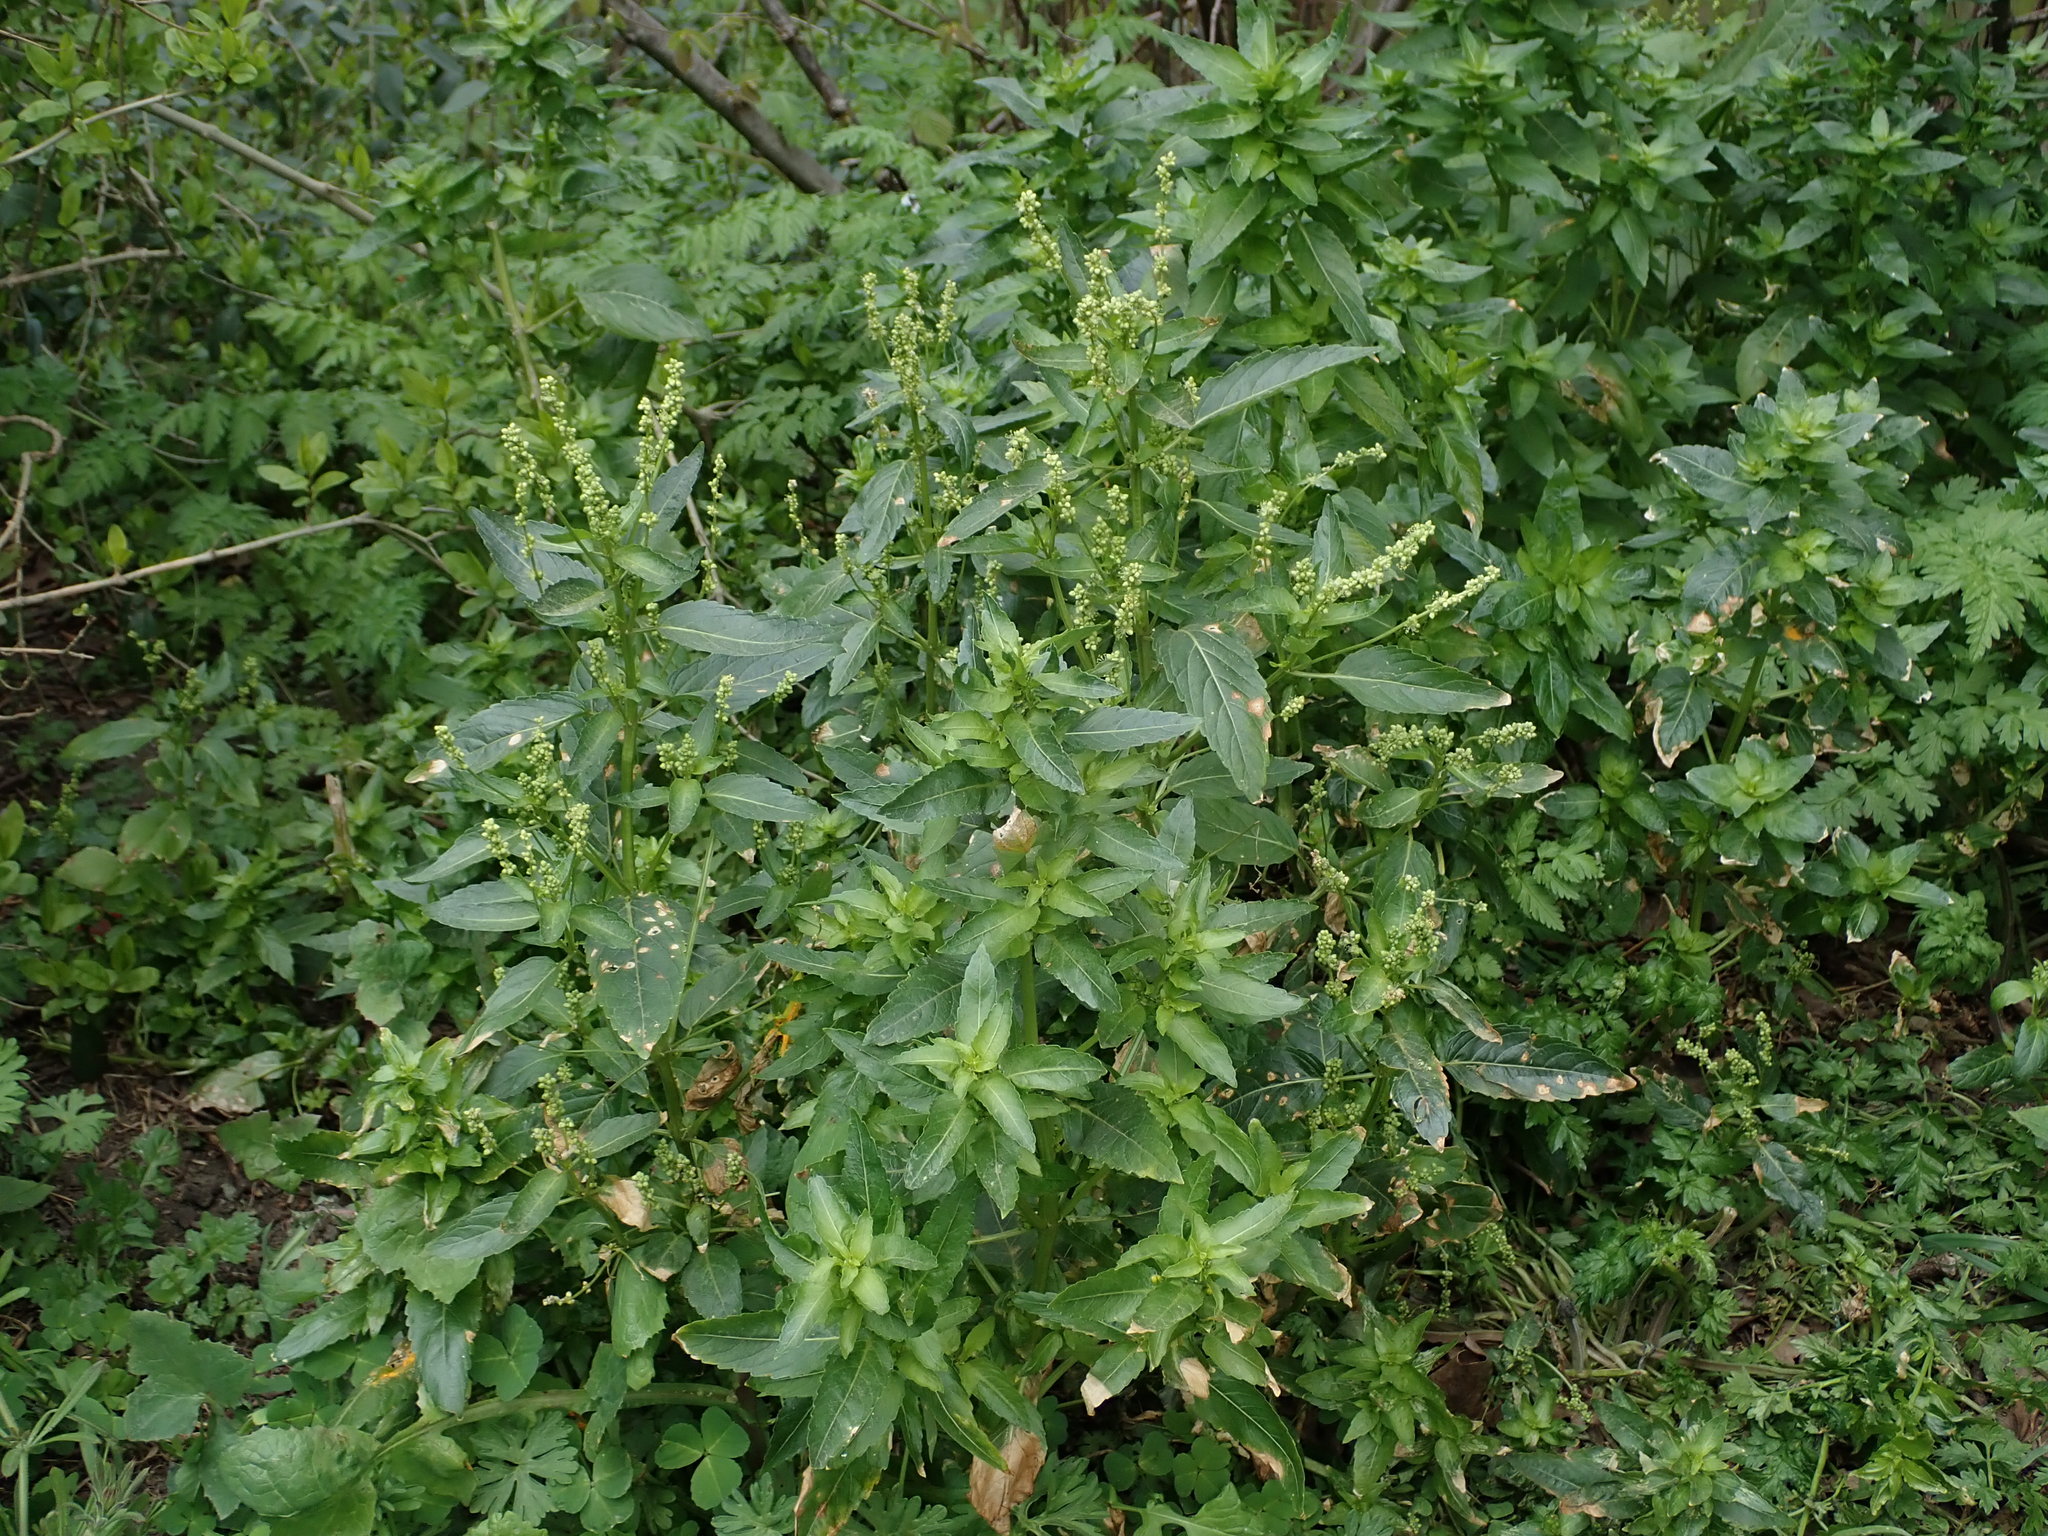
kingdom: Plantae
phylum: Tracheophyta
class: Magnoliopsida
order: Malpighiales
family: Euphorbiaceae
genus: Mercurialis
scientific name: Mercurialis annua
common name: Annual mercury
